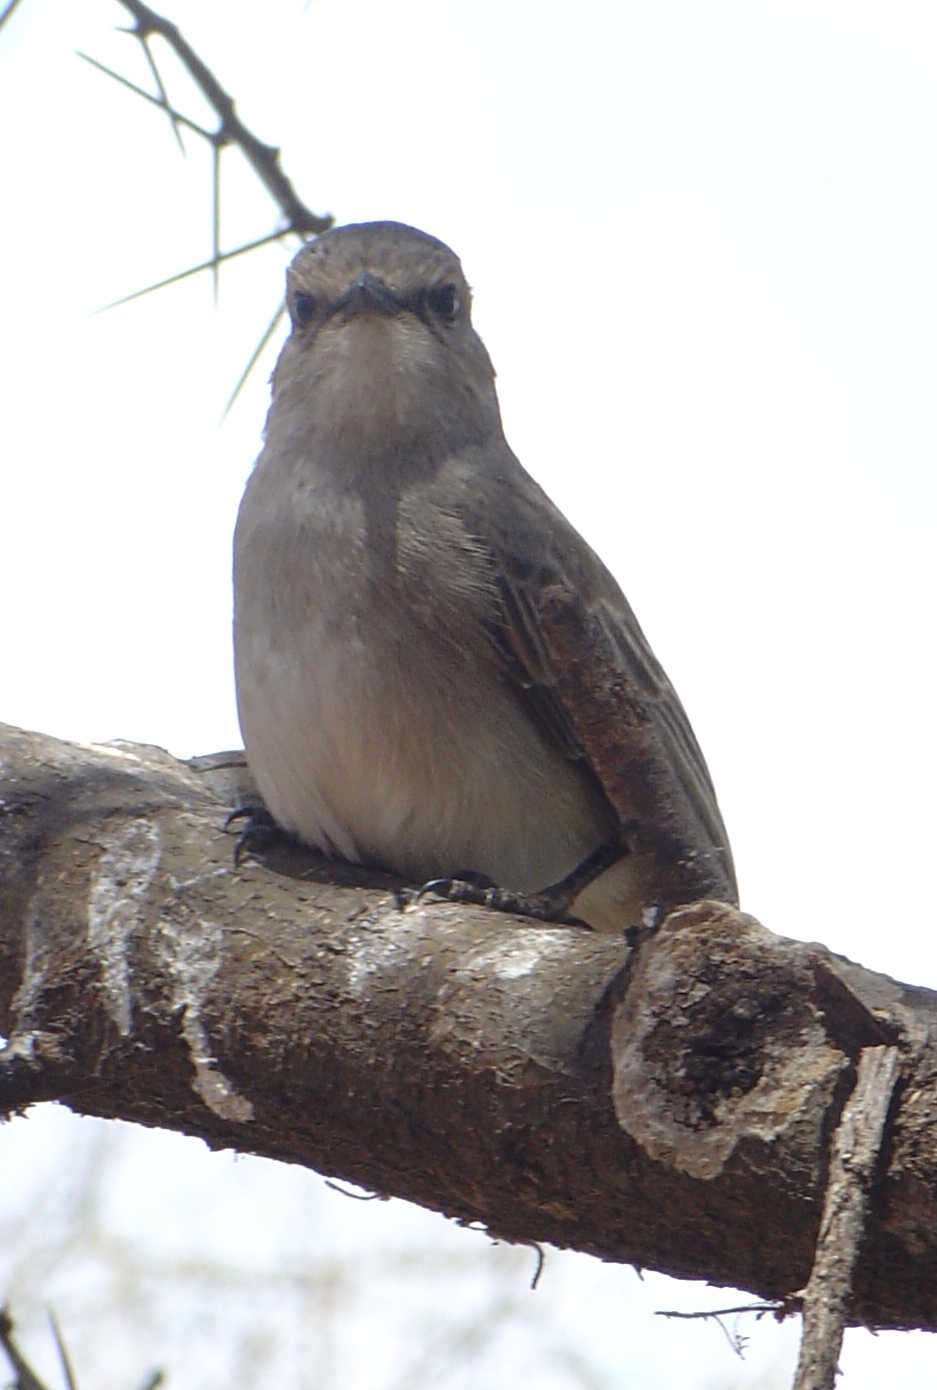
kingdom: Animalia
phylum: Chordata
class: Aves
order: Passeriformes
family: Muscicapidae
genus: Bradornis
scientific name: Bradornis microrhynchus
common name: African grey flycatcher
